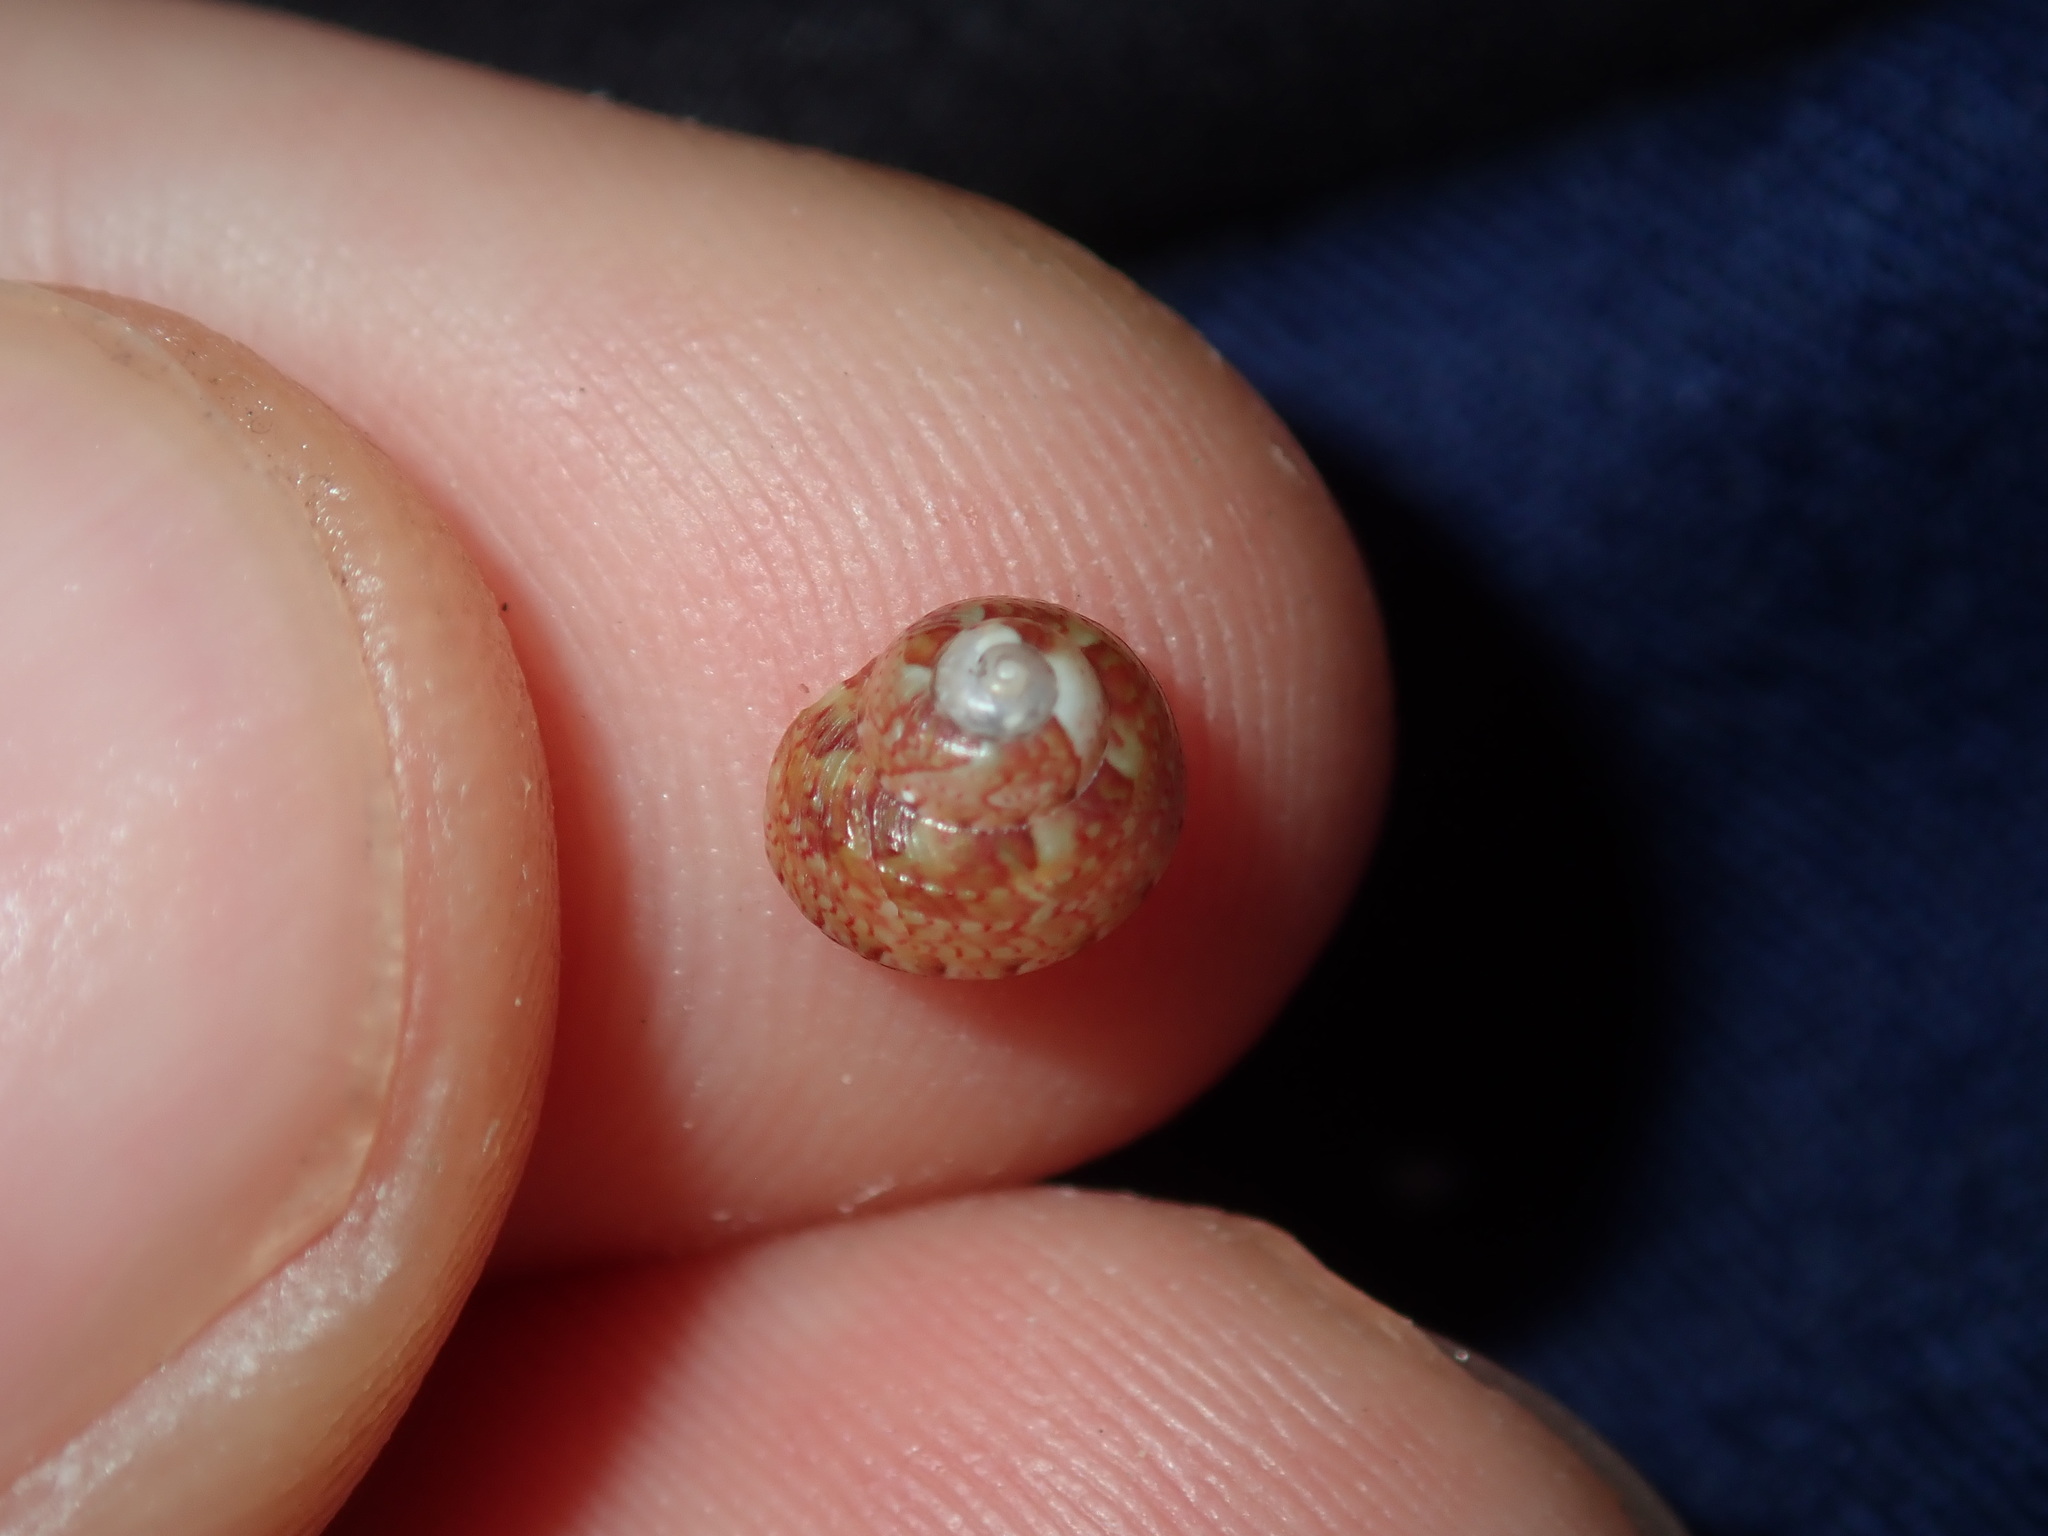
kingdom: Animalia
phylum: Mollusca
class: Gastropoda
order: Trochida
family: Trochidae
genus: Cantharidella
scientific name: Cantharidella picturata
